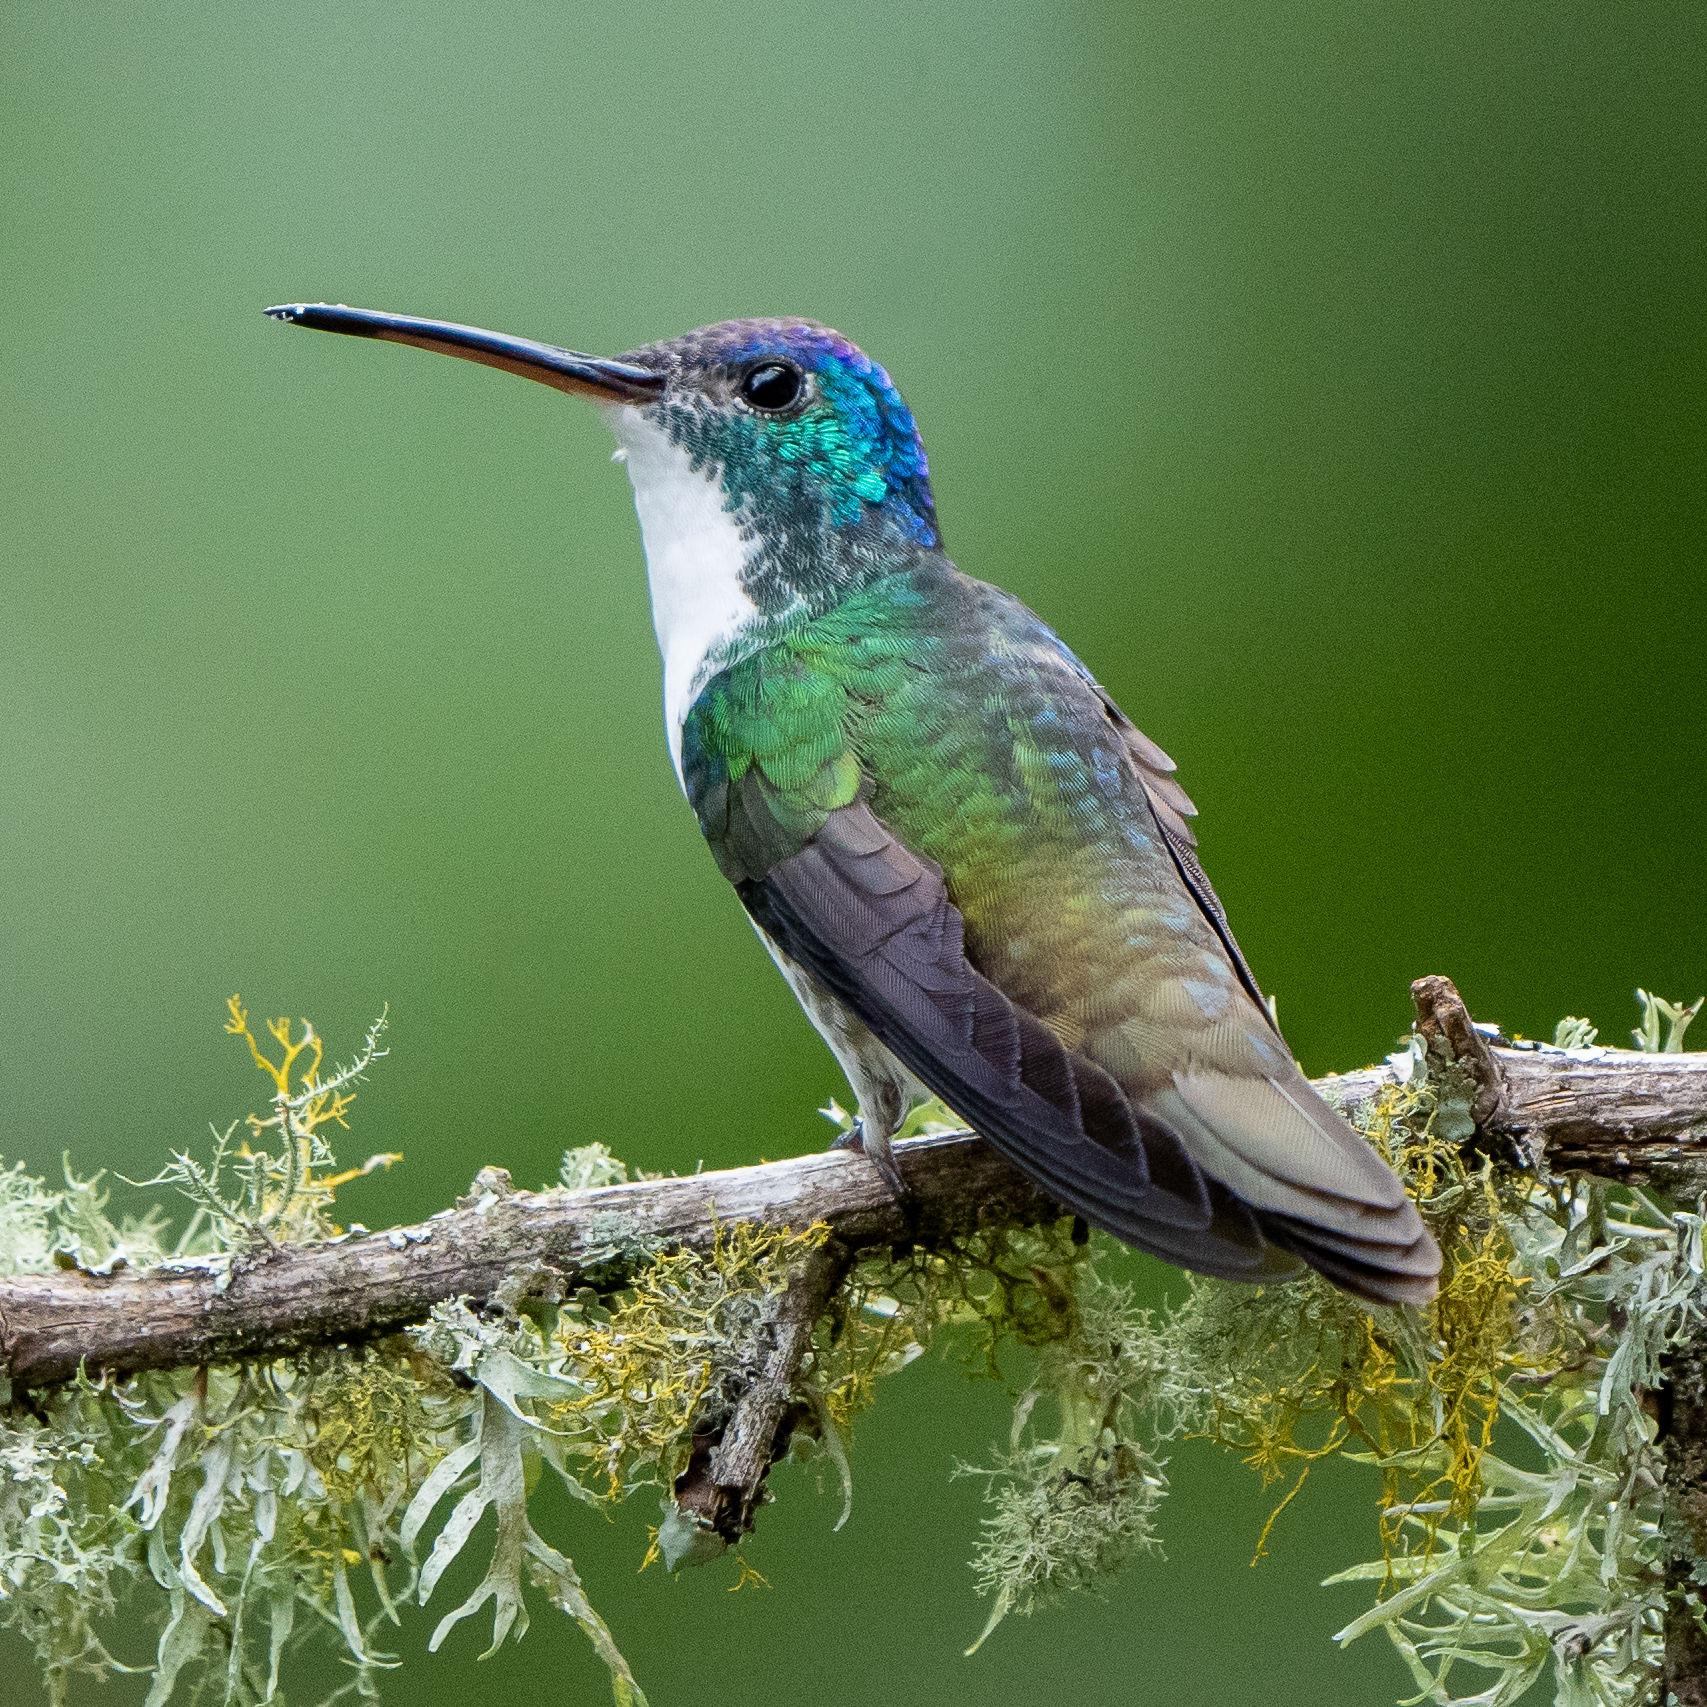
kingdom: Animalia
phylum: Chordata
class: Aves
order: Apodiformes
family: Trochilidae
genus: Uranomitra
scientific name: Uranomitra franciae
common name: Andean emerald
